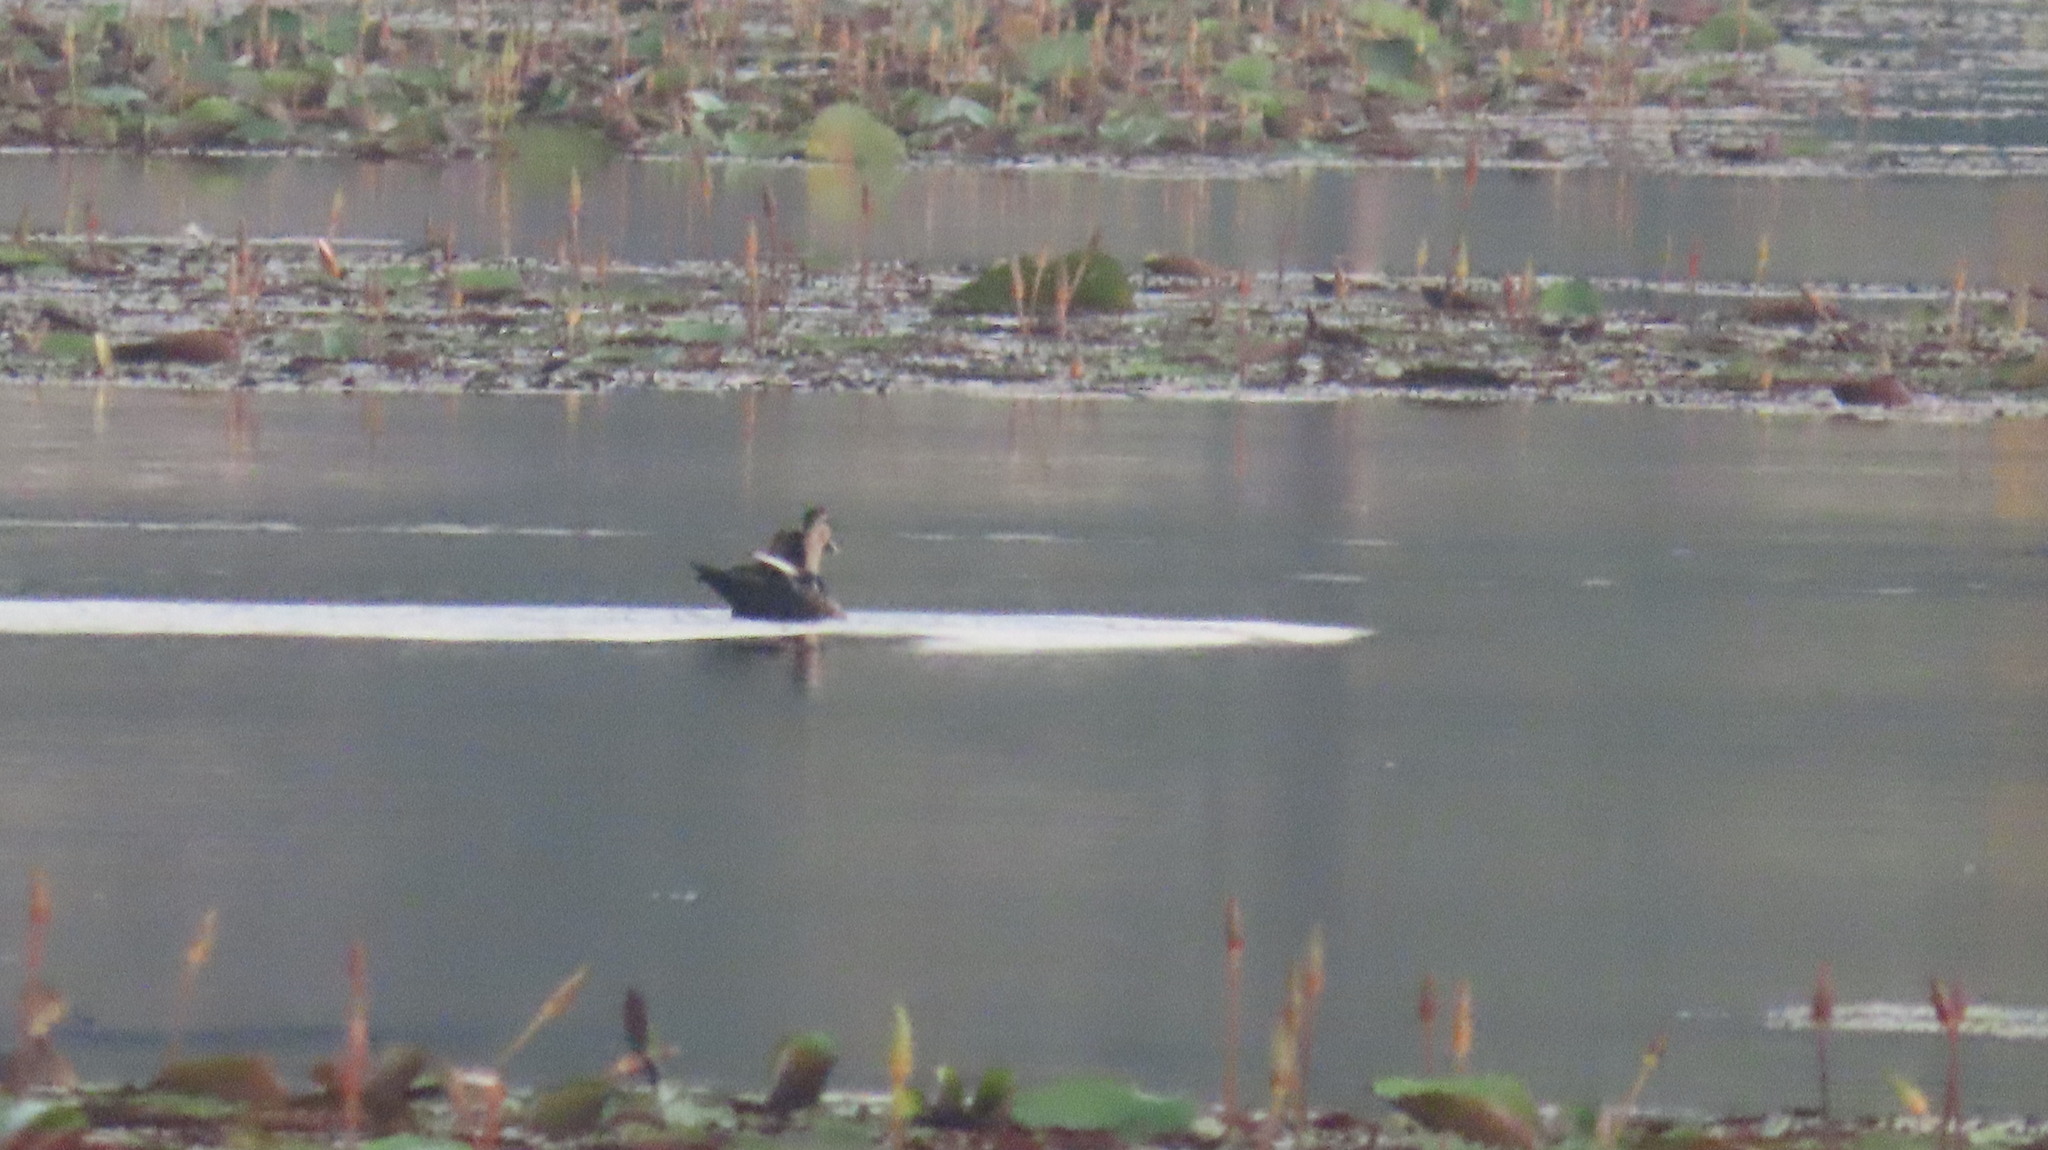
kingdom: Animalia
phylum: Chordata
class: Aves
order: Anseriformes
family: Anatidae
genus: Anas
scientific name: Anas poecilorhyncha
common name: Indian spot-billed duck
